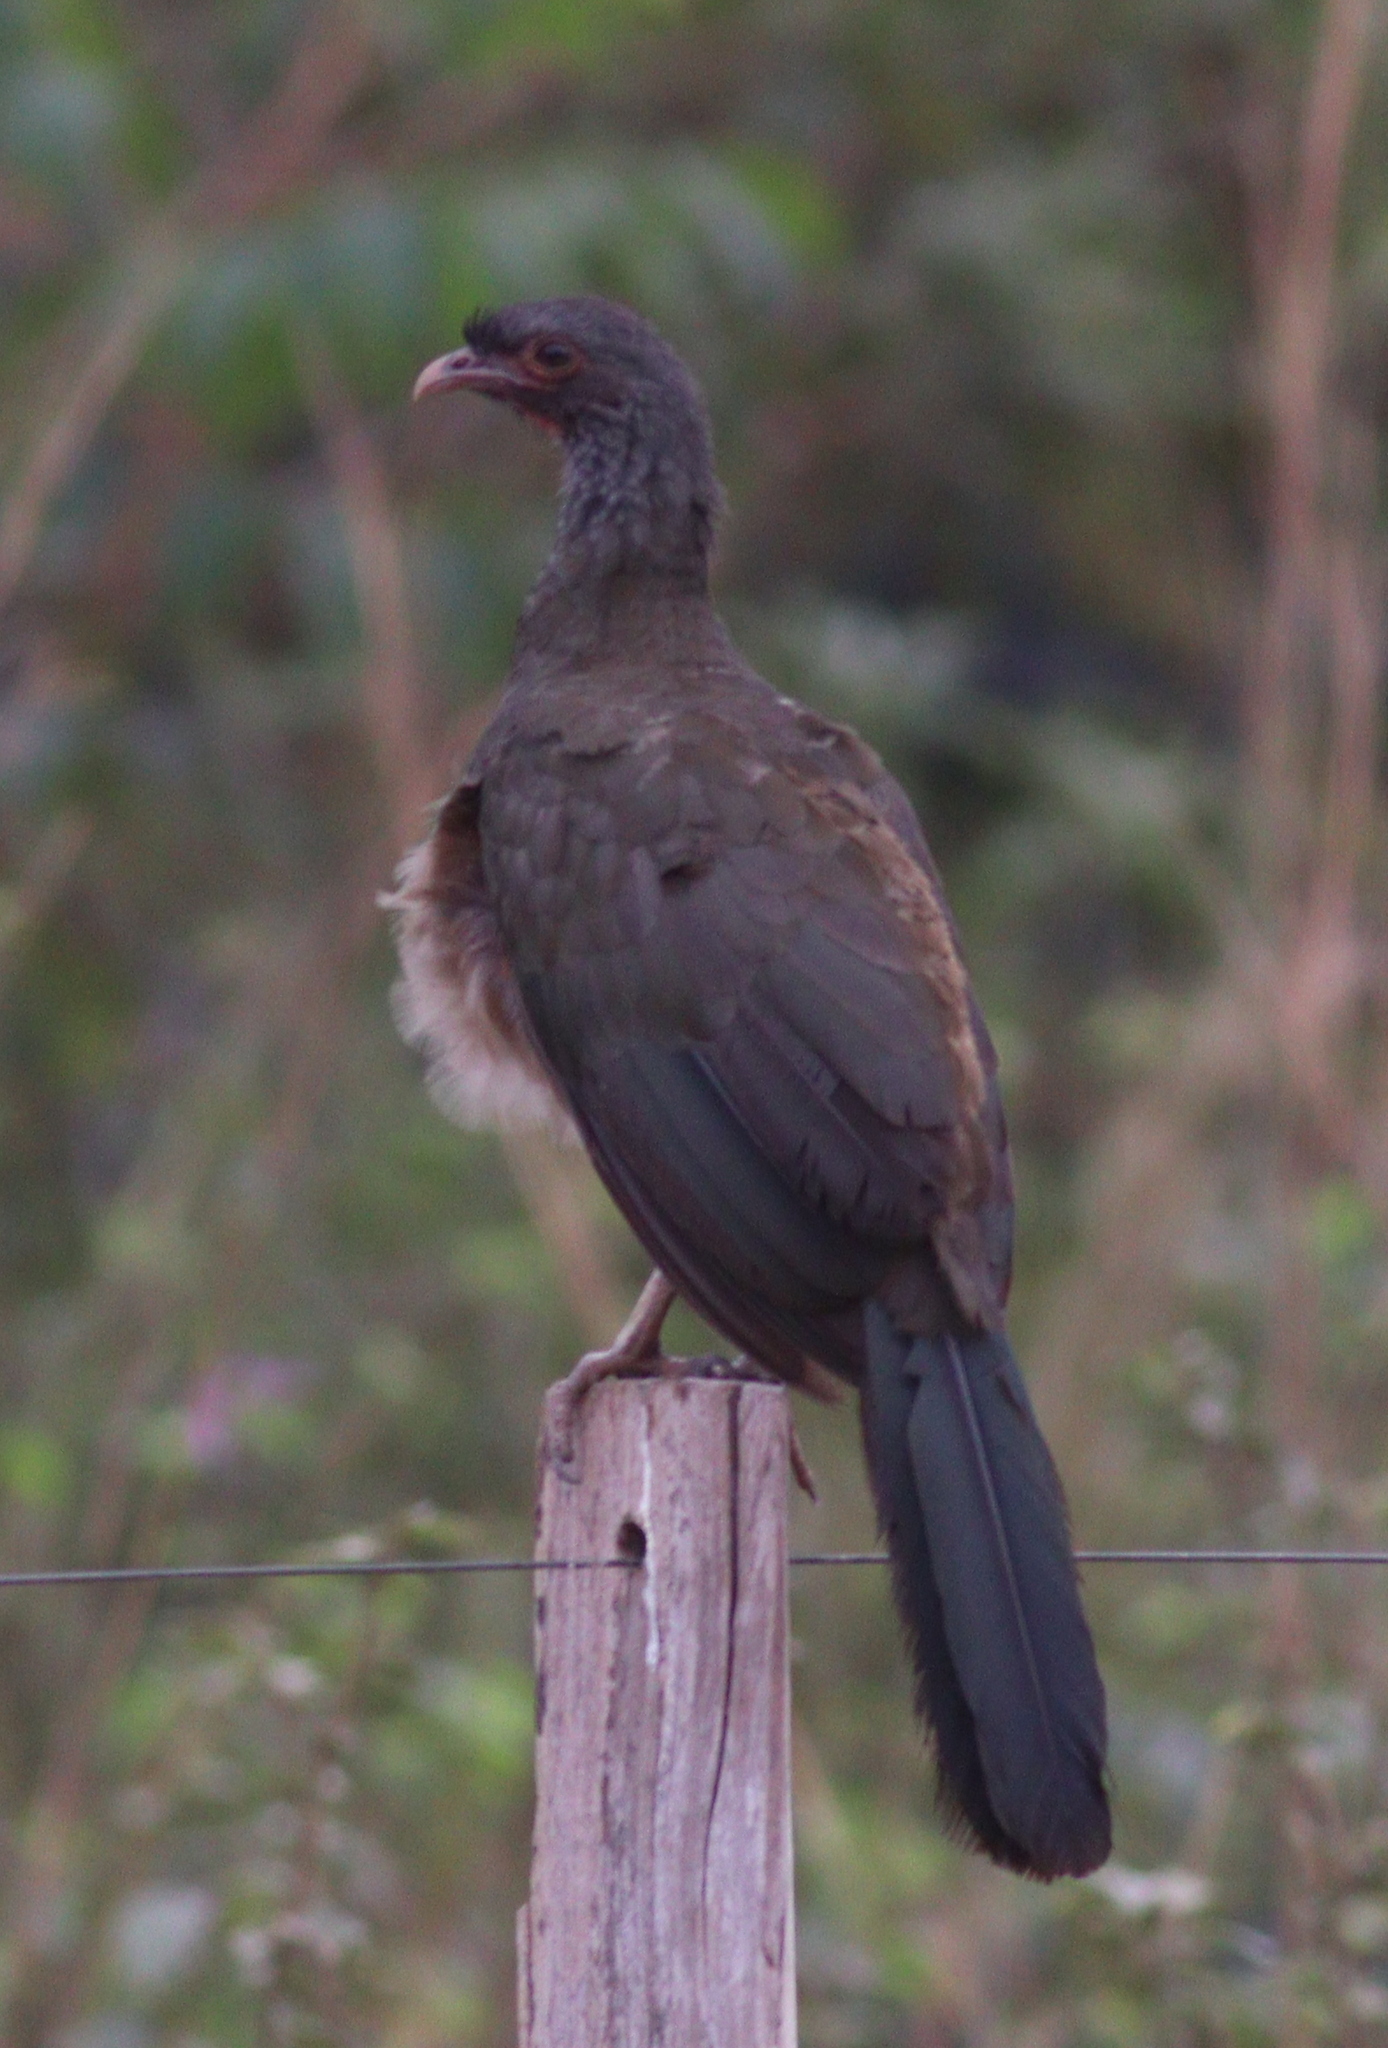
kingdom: Animalia
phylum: Chordata
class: Aves
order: Galliformes
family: Cracidae
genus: Ortalis
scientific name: Ortalis canicollis
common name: Chaco chachalaca
